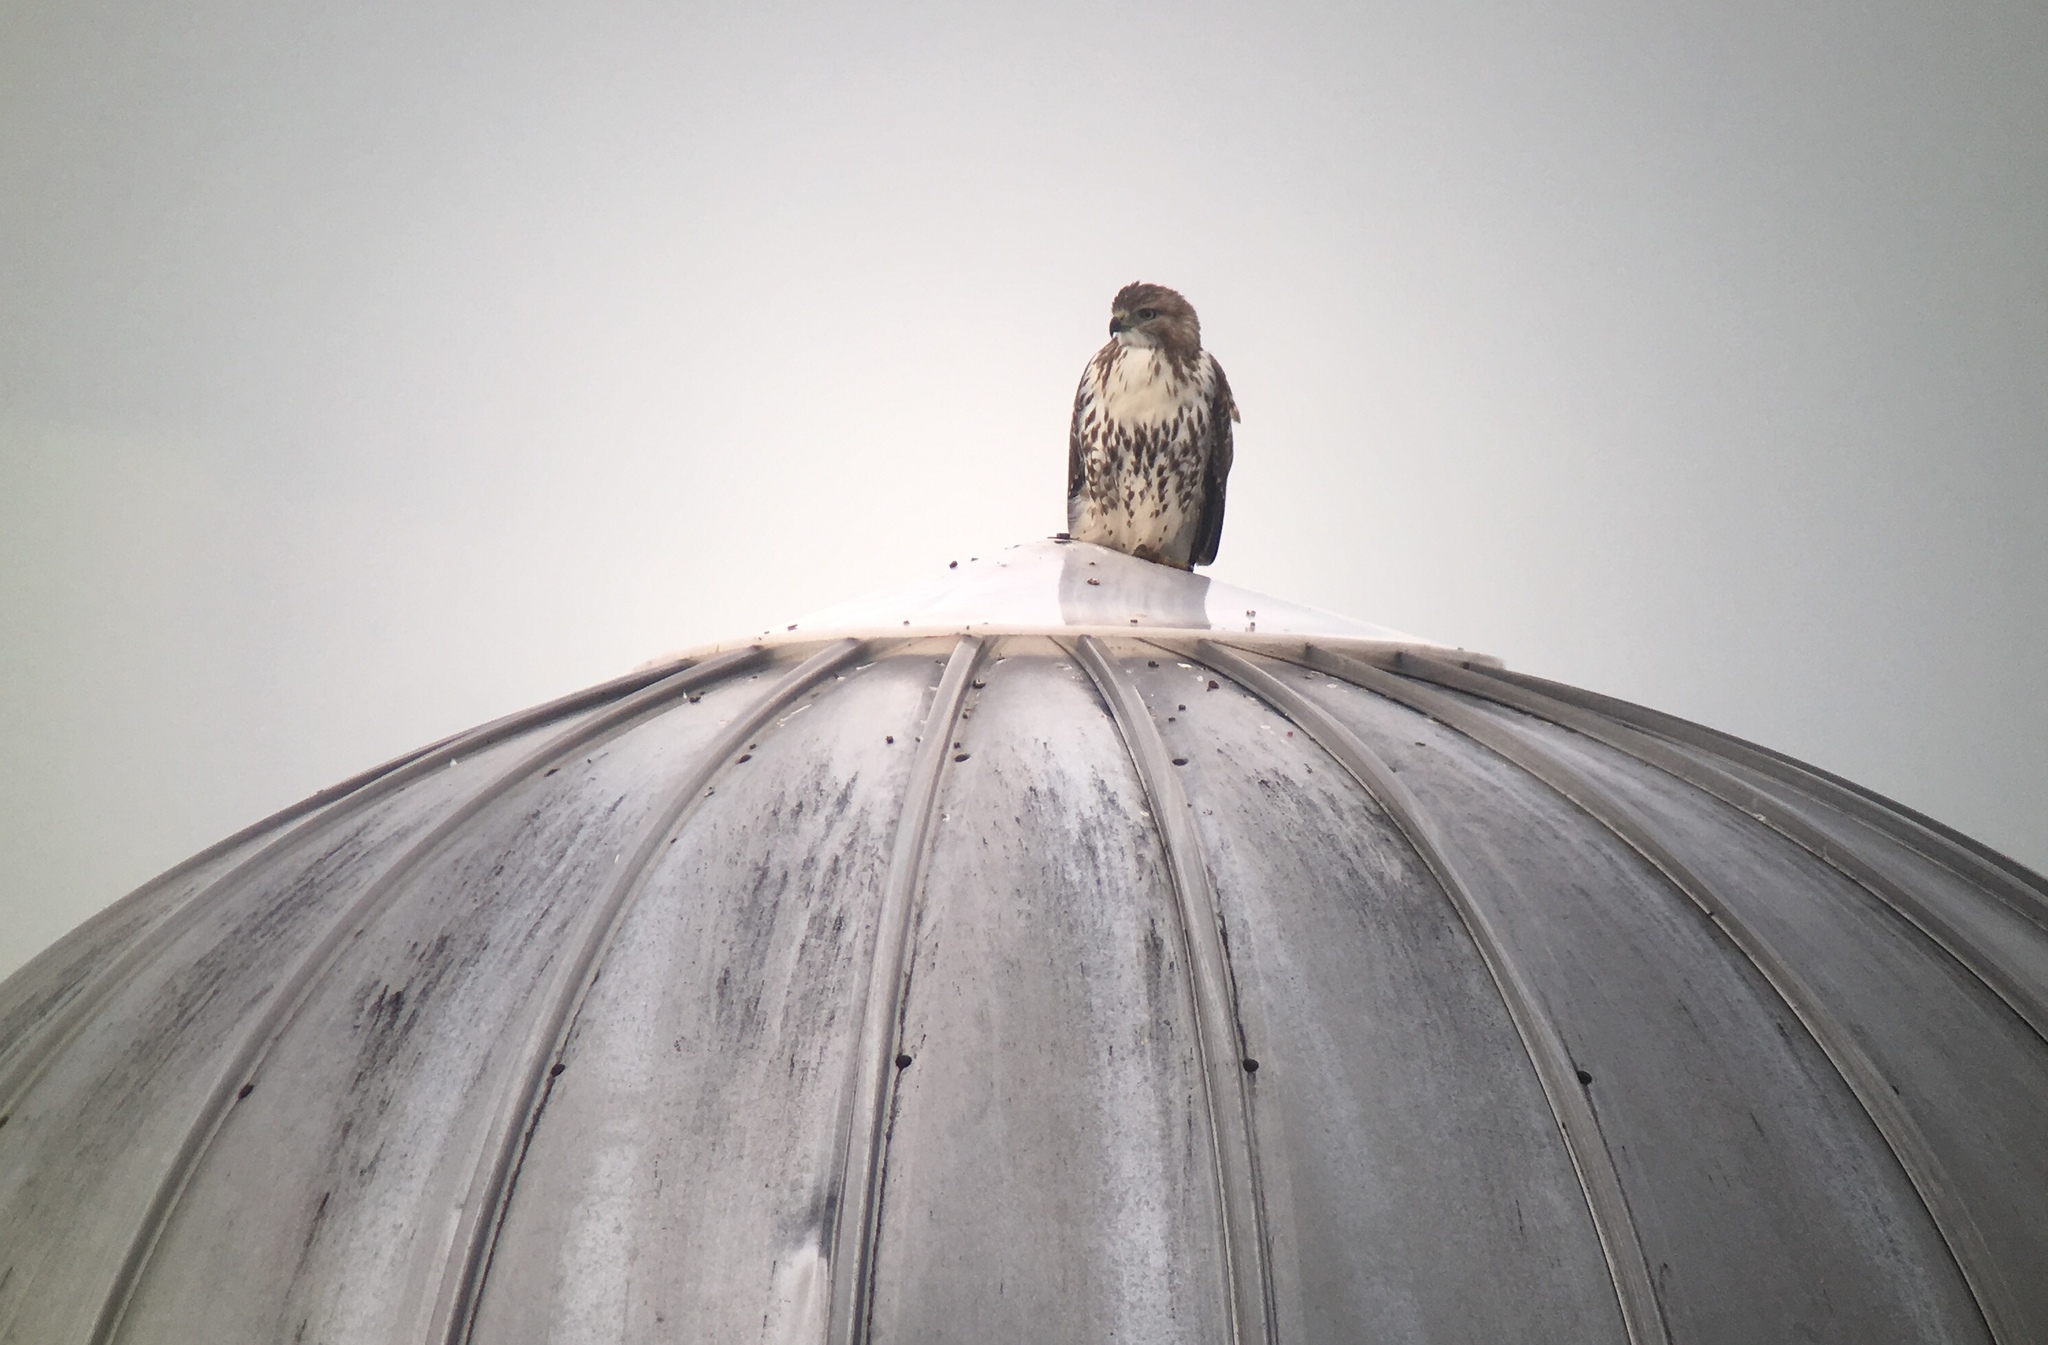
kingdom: Animalia
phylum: Chordata
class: Aves
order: Accipitriformes
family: Accipitridae
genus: Buteo
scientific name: Buteo jamaicensis
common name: Red-tailed hawk
